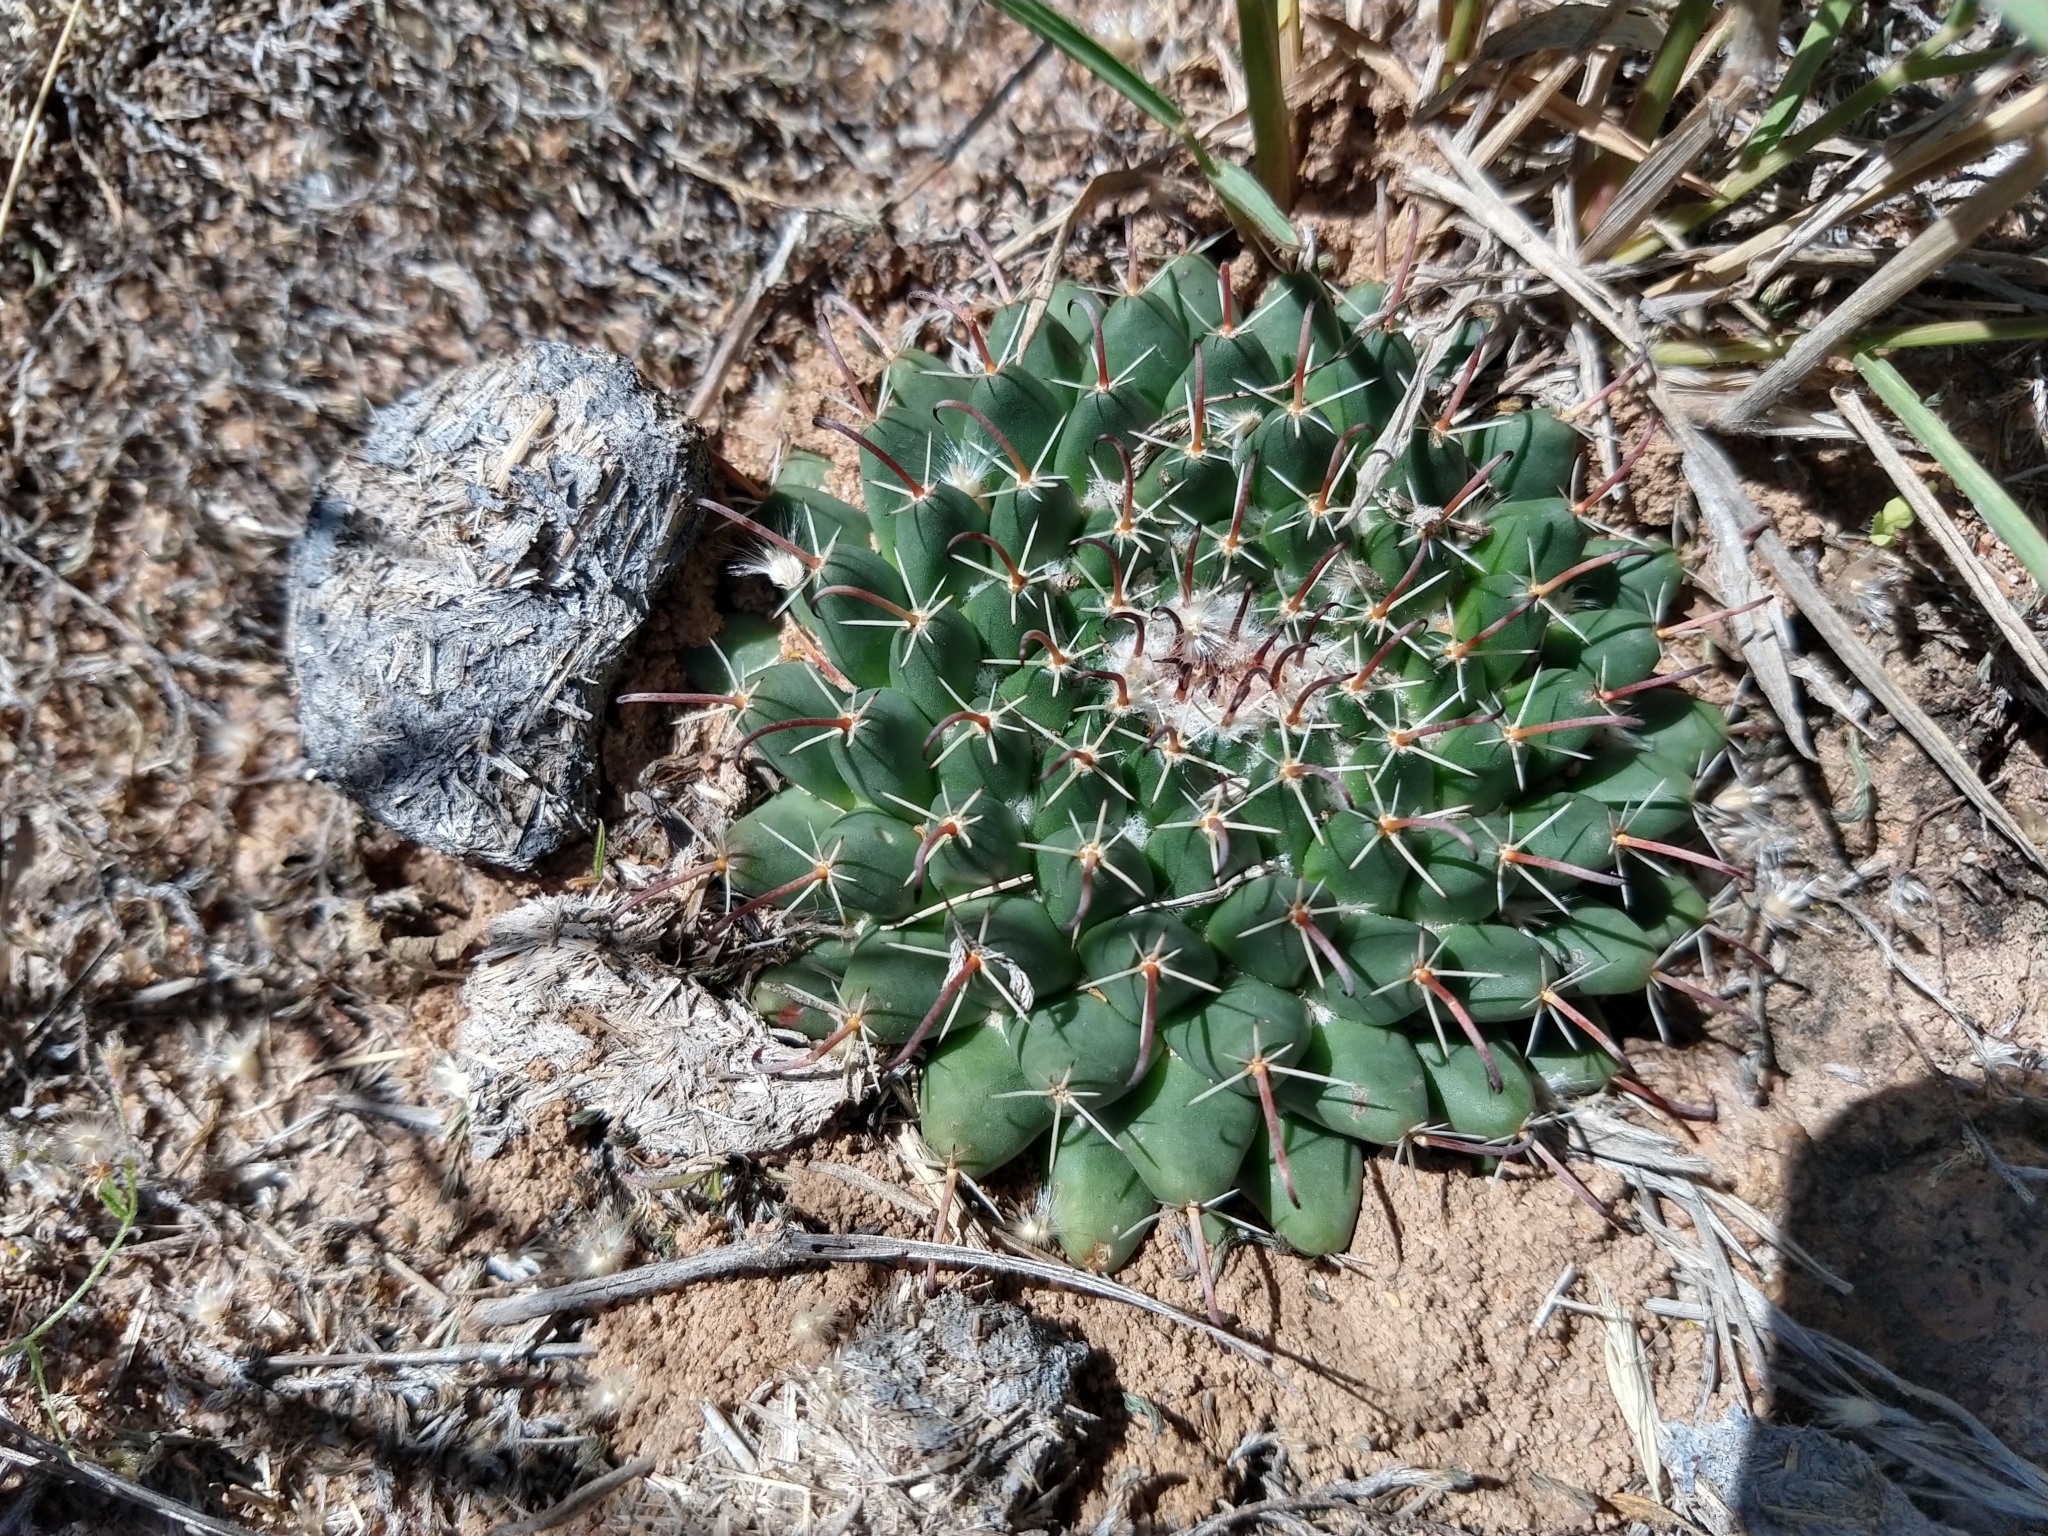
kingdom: Plantae
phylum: Tracheophyta
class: Magnoliopsida
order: Caryophyllales
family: Cactaceae
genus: Mammillaria
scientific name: Mammillaria uncinata
